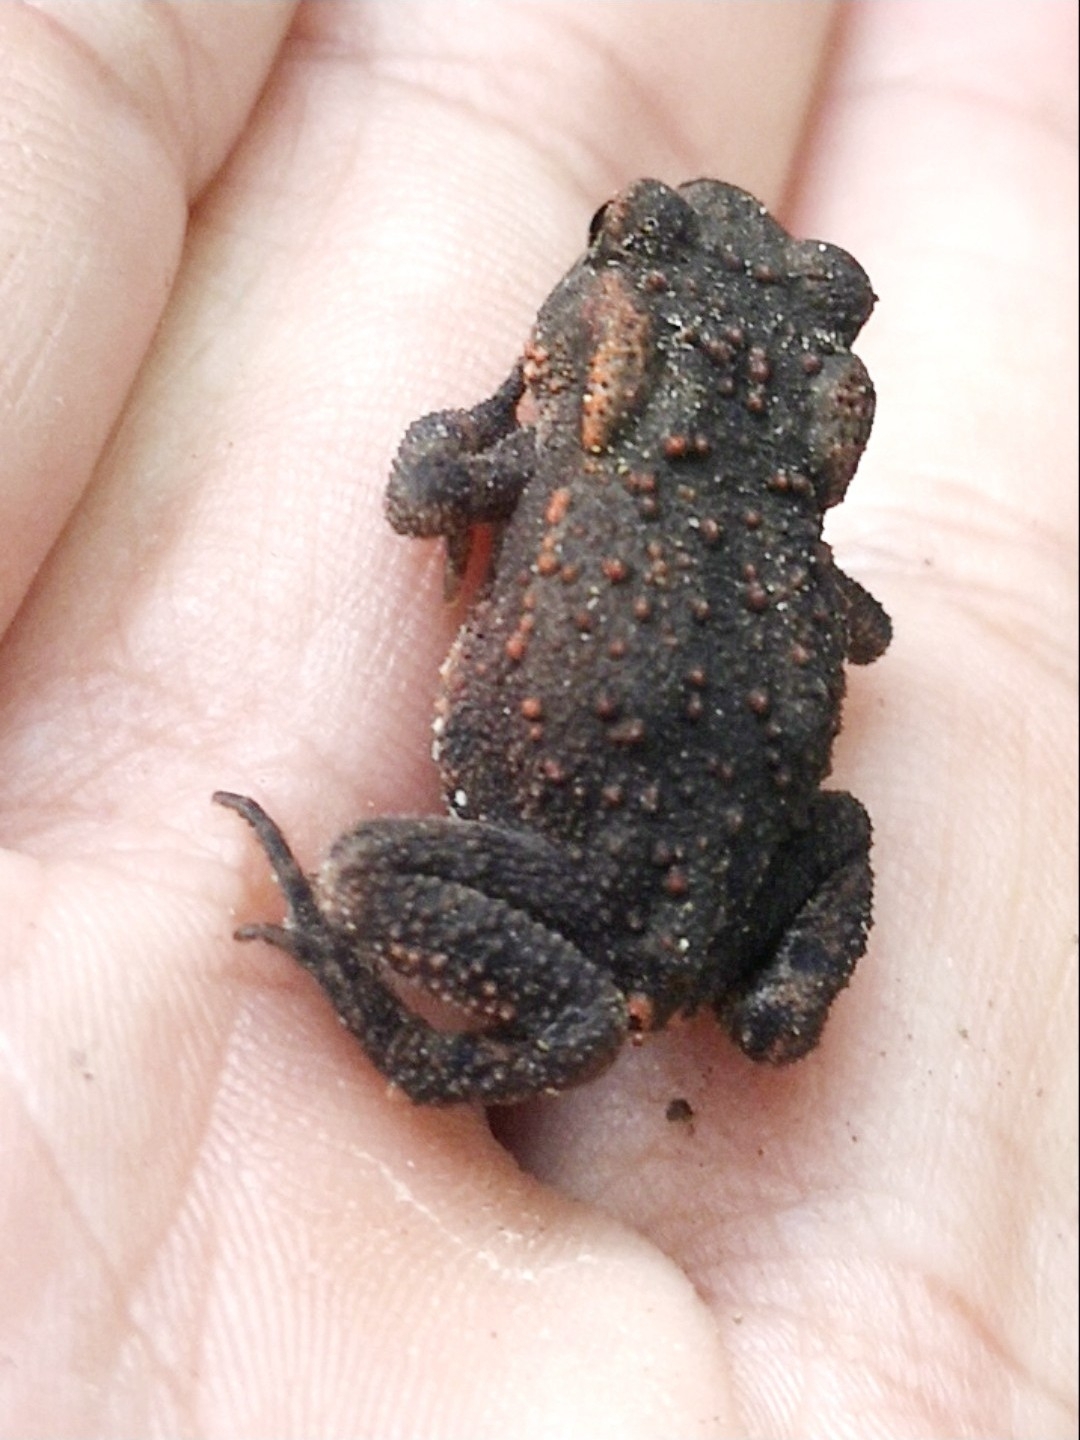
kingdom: Animalia
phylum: Chordata
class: Amphibia
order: Anura
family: Bufonidae
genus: Bufo
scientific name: Bufo bufo
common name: Common toad
